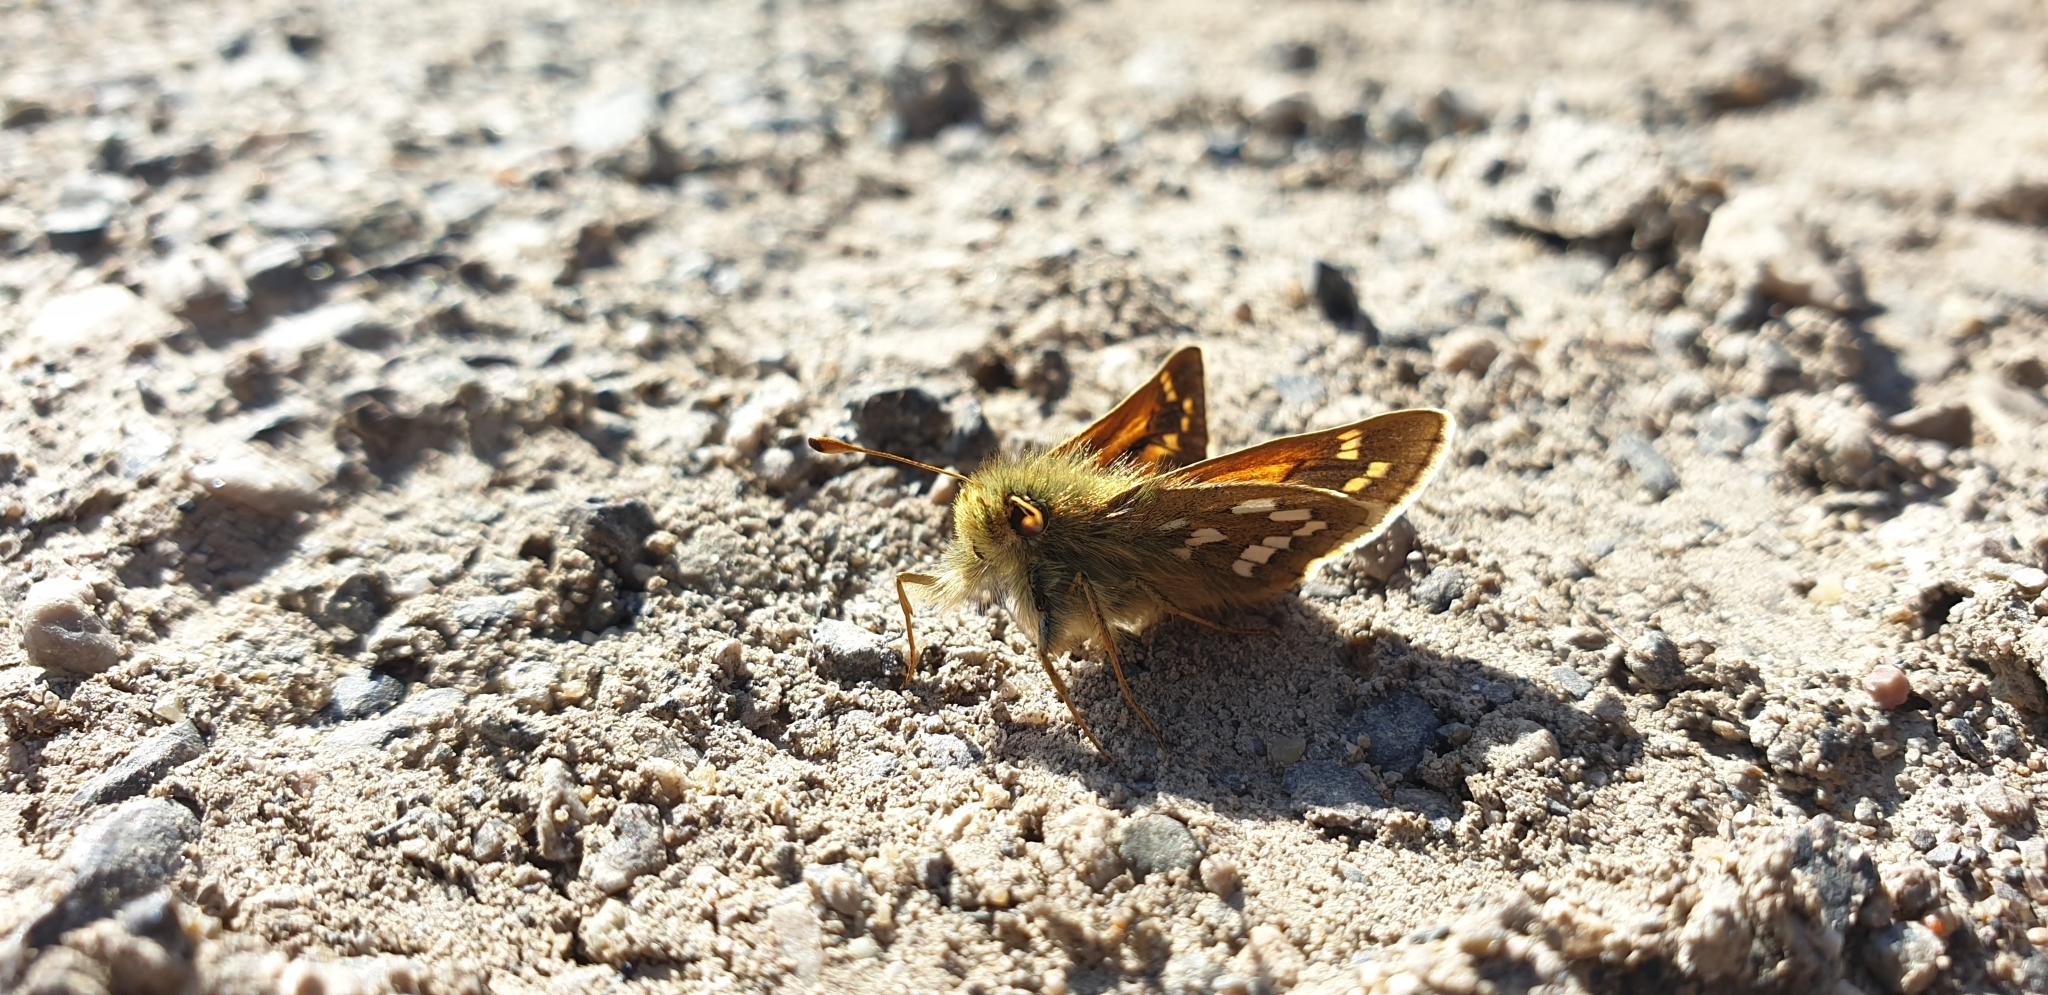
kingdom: Animalia
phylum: Arthropoda
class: Insecta
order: Lepidoptera
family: Hesperiidae
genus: Hesperia
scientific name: Hesperia comma
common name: Common branded skipper
